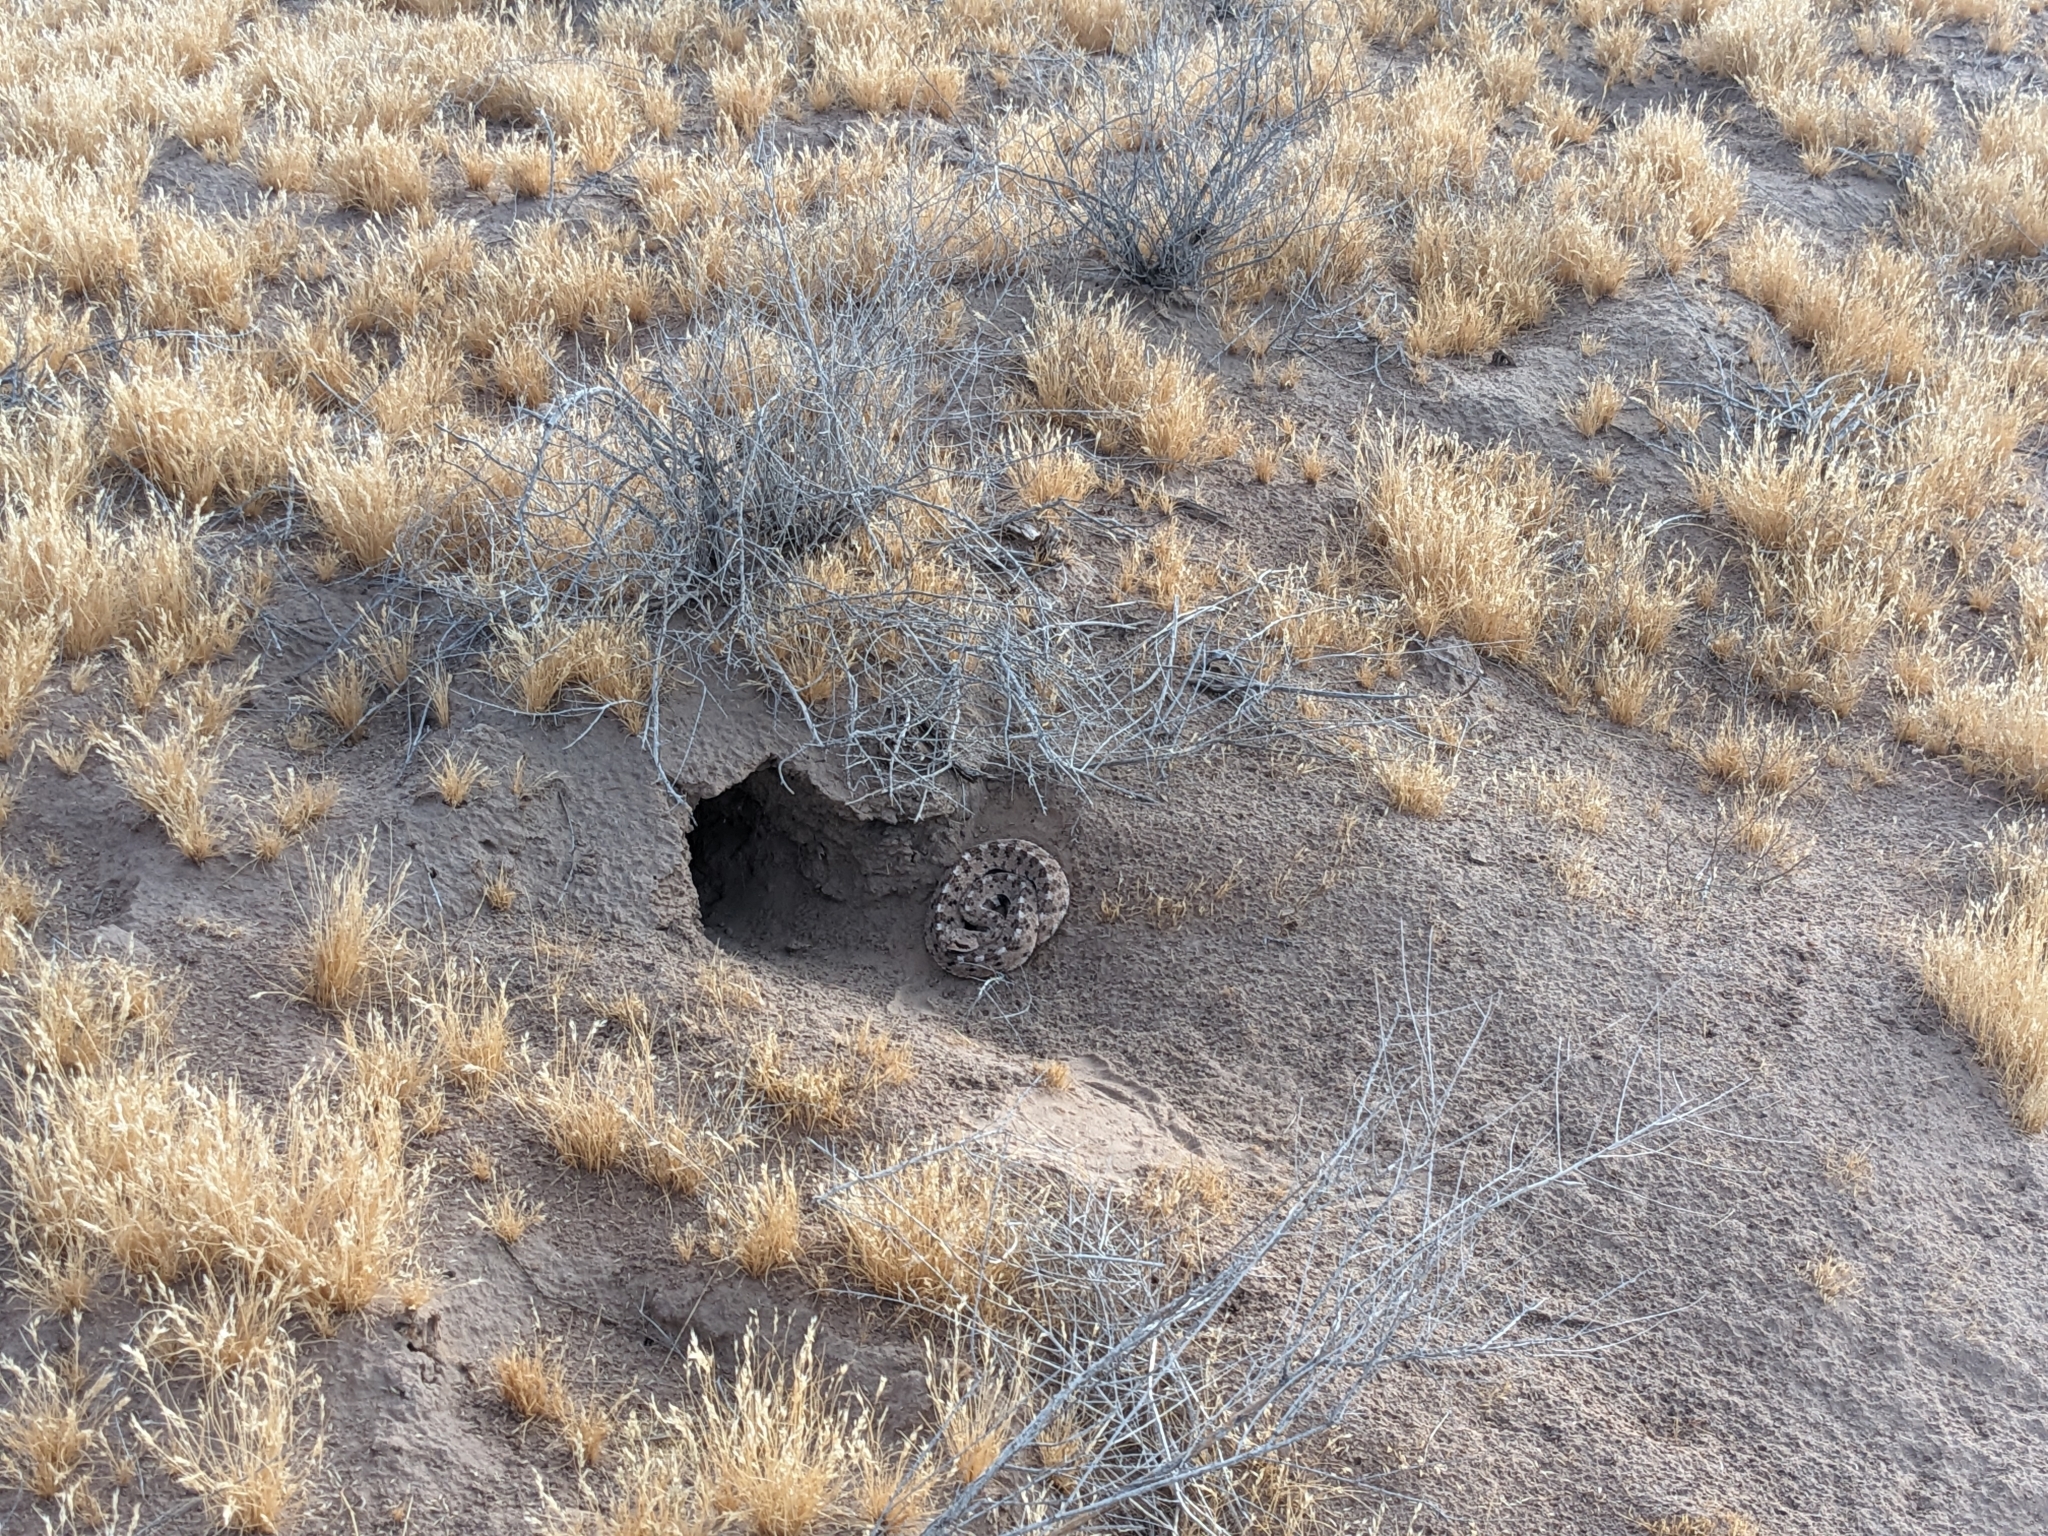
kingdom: Animalia
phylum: Chordata
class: Squamata
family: Viperidae
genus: Crotalus
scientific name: Crotalus cerastes
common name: Sidewinder
